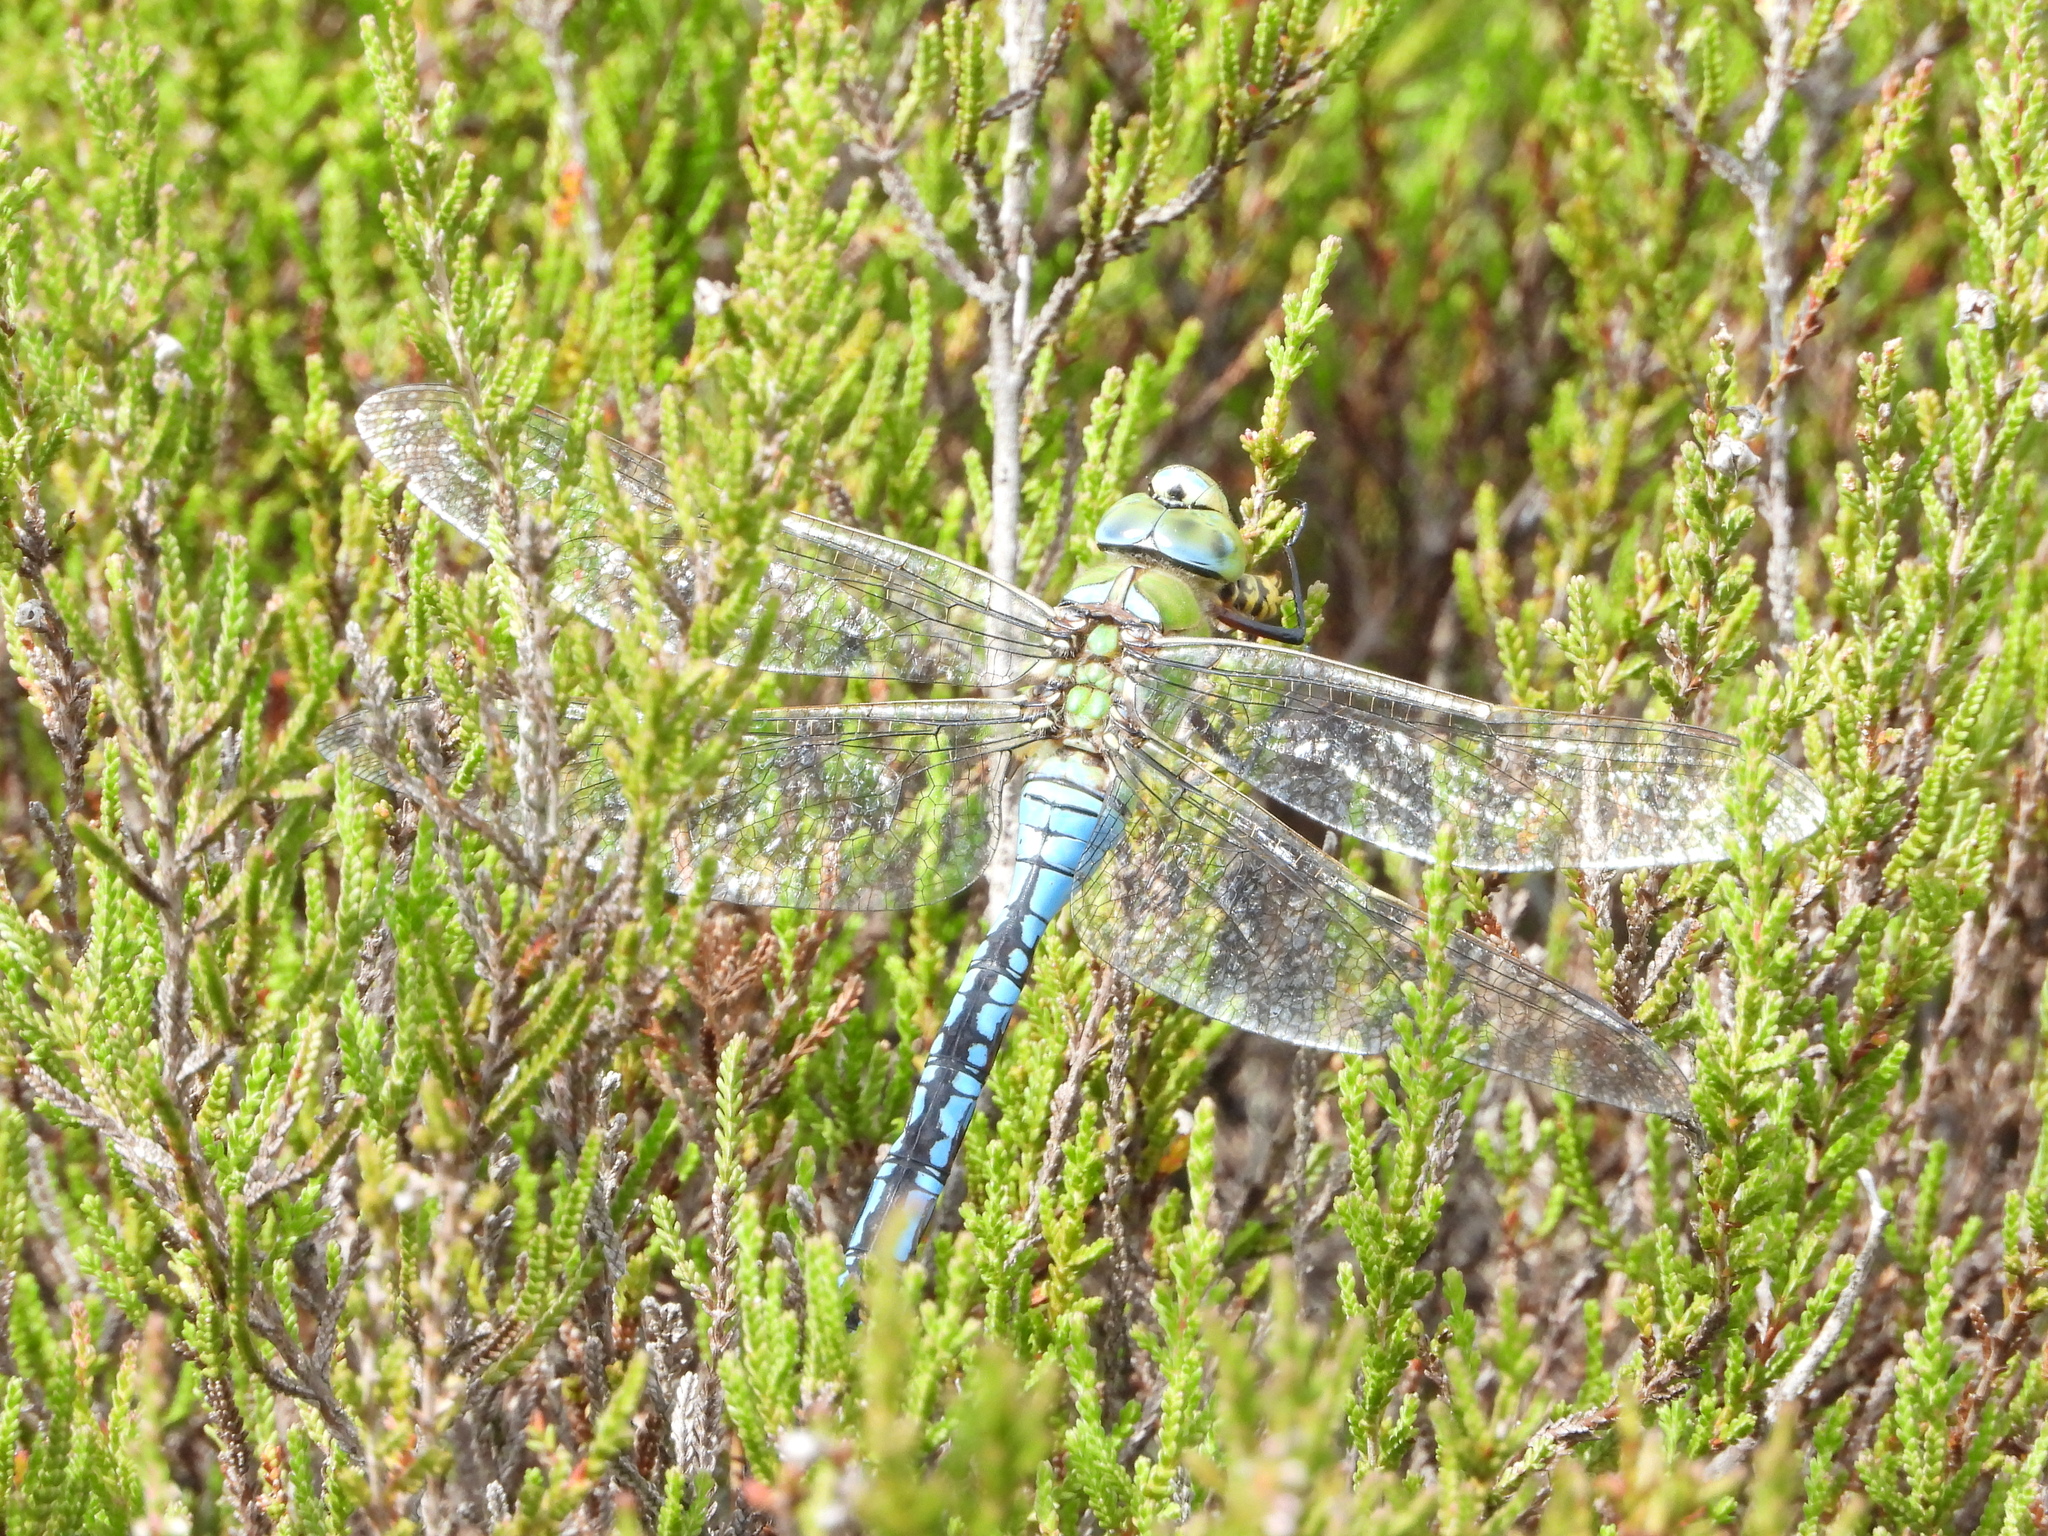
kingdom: Animalia
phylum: Arthropoda
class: Insecta
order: Odonata
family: Aeshnidae
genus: Anax
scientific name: Anax imperator
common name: Emperor dragonfly
